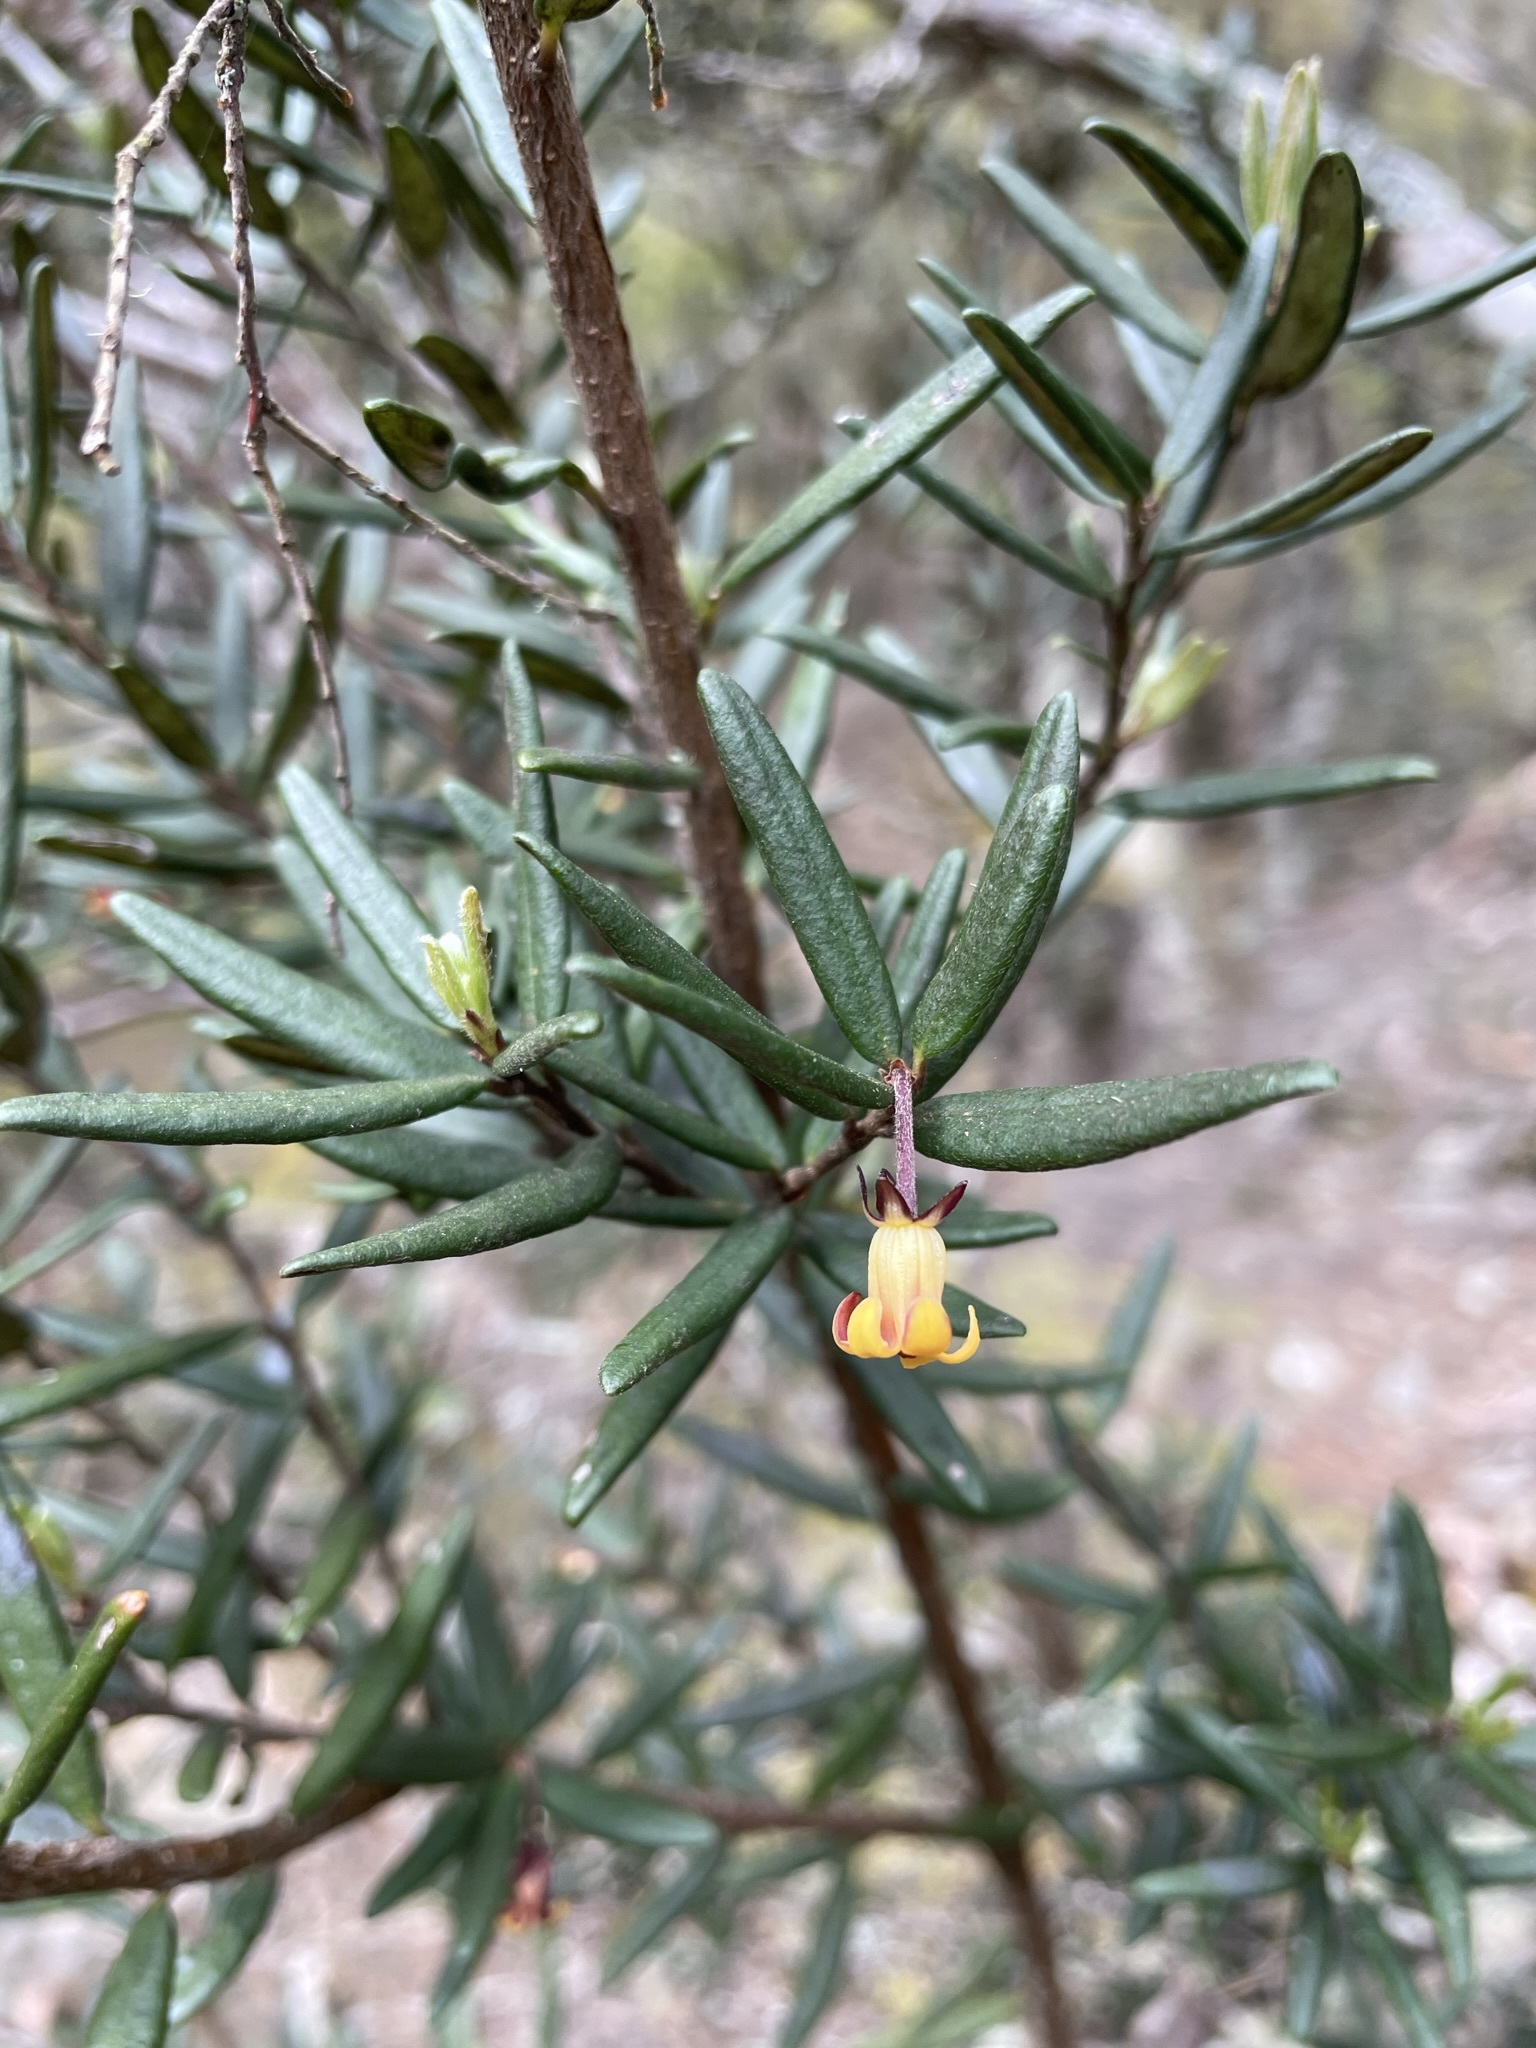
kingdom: Plantae
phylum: Tracheophyta
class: Magnoliopsida
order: Apiales
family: Pittosporaceae
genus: Pittosporum
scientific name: Pittosporum bicolor
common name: Tallowwood
